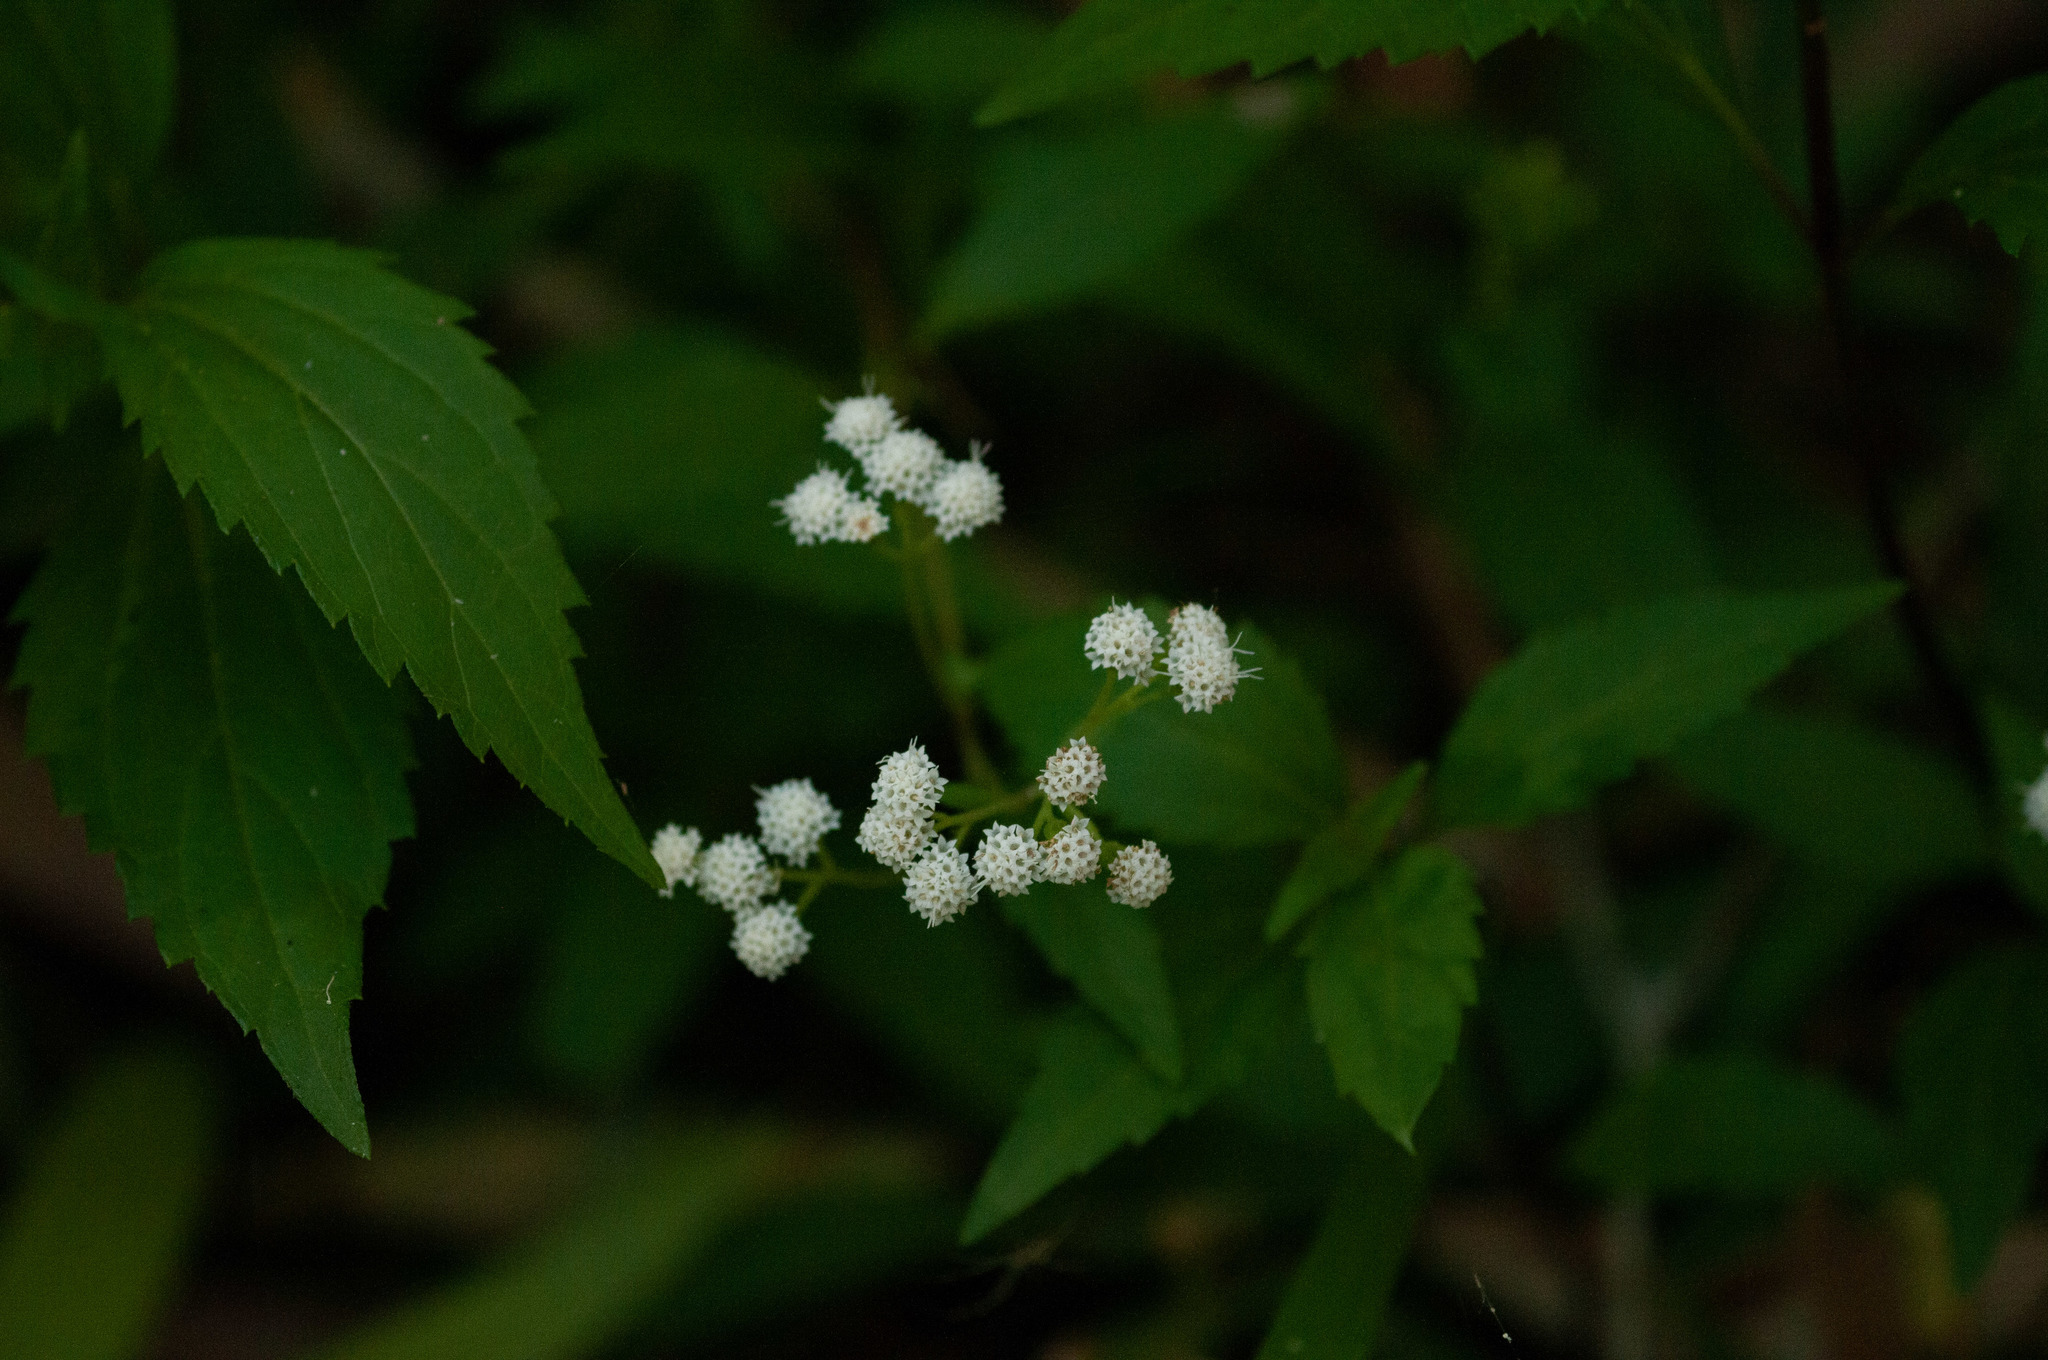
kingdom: Plantae
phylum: Tracheophyta
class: Magnoliopsida
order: Asterales
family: Asteraceae
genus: Ageratina
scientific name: Ageratina riparia
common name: Creeping croftonweed
